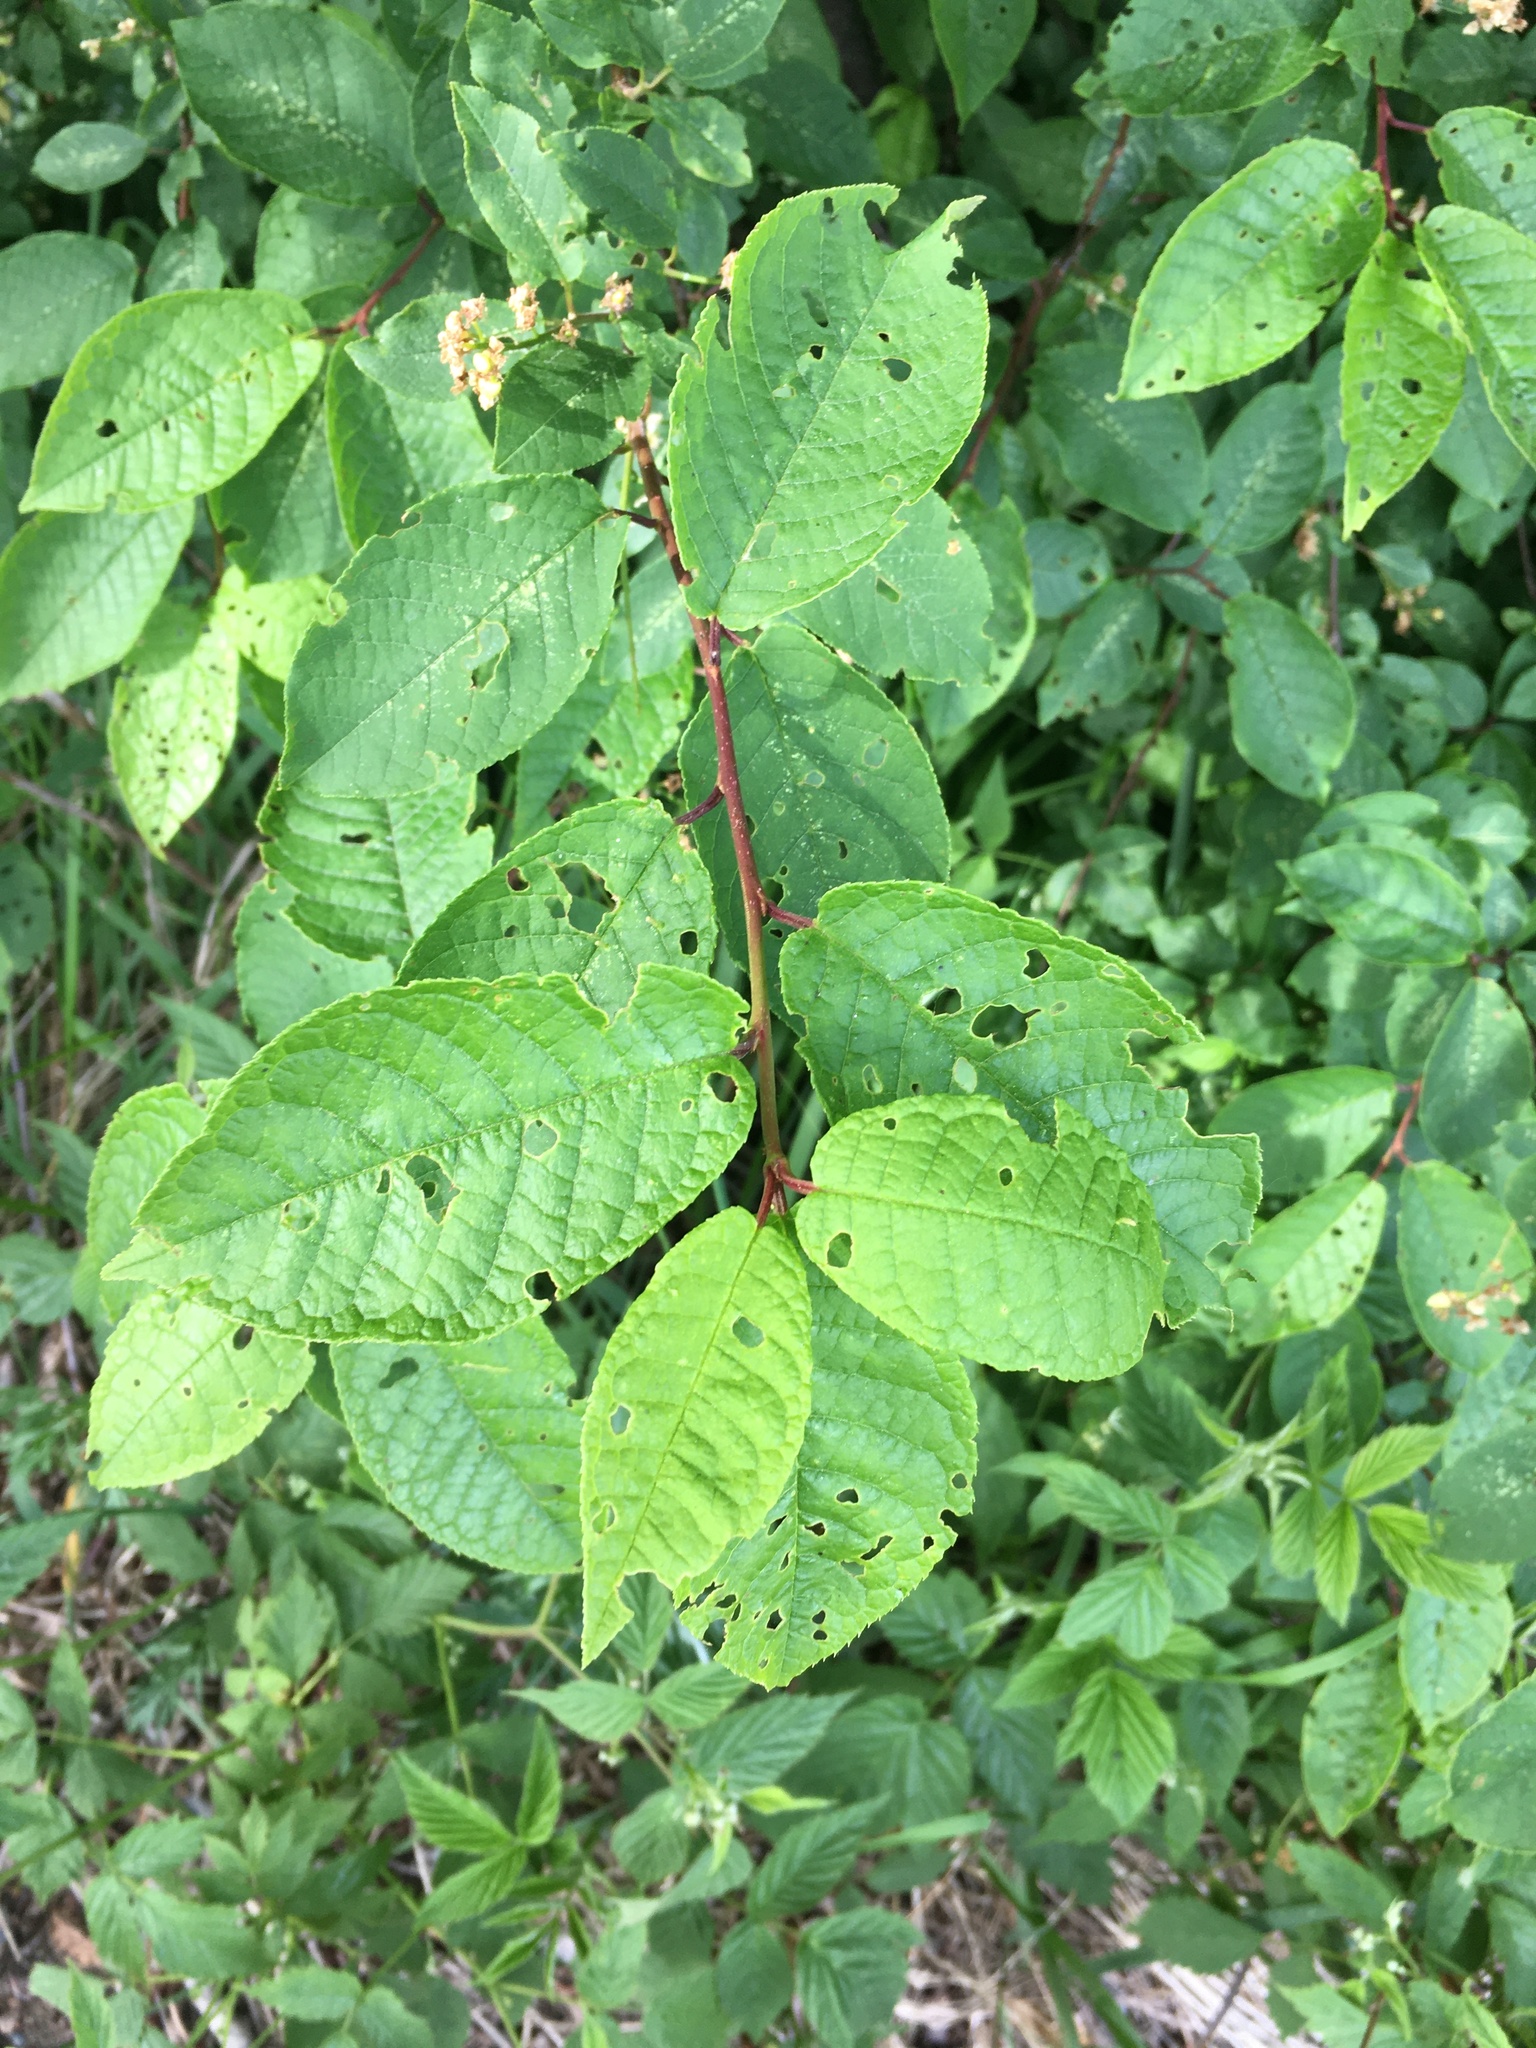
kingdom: Plantae
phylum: Tracheophyta
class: Magnoliopsida
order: Rosales
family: Rosaceae
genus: Prunus
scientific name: Prunus padus
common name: Bird cherry
